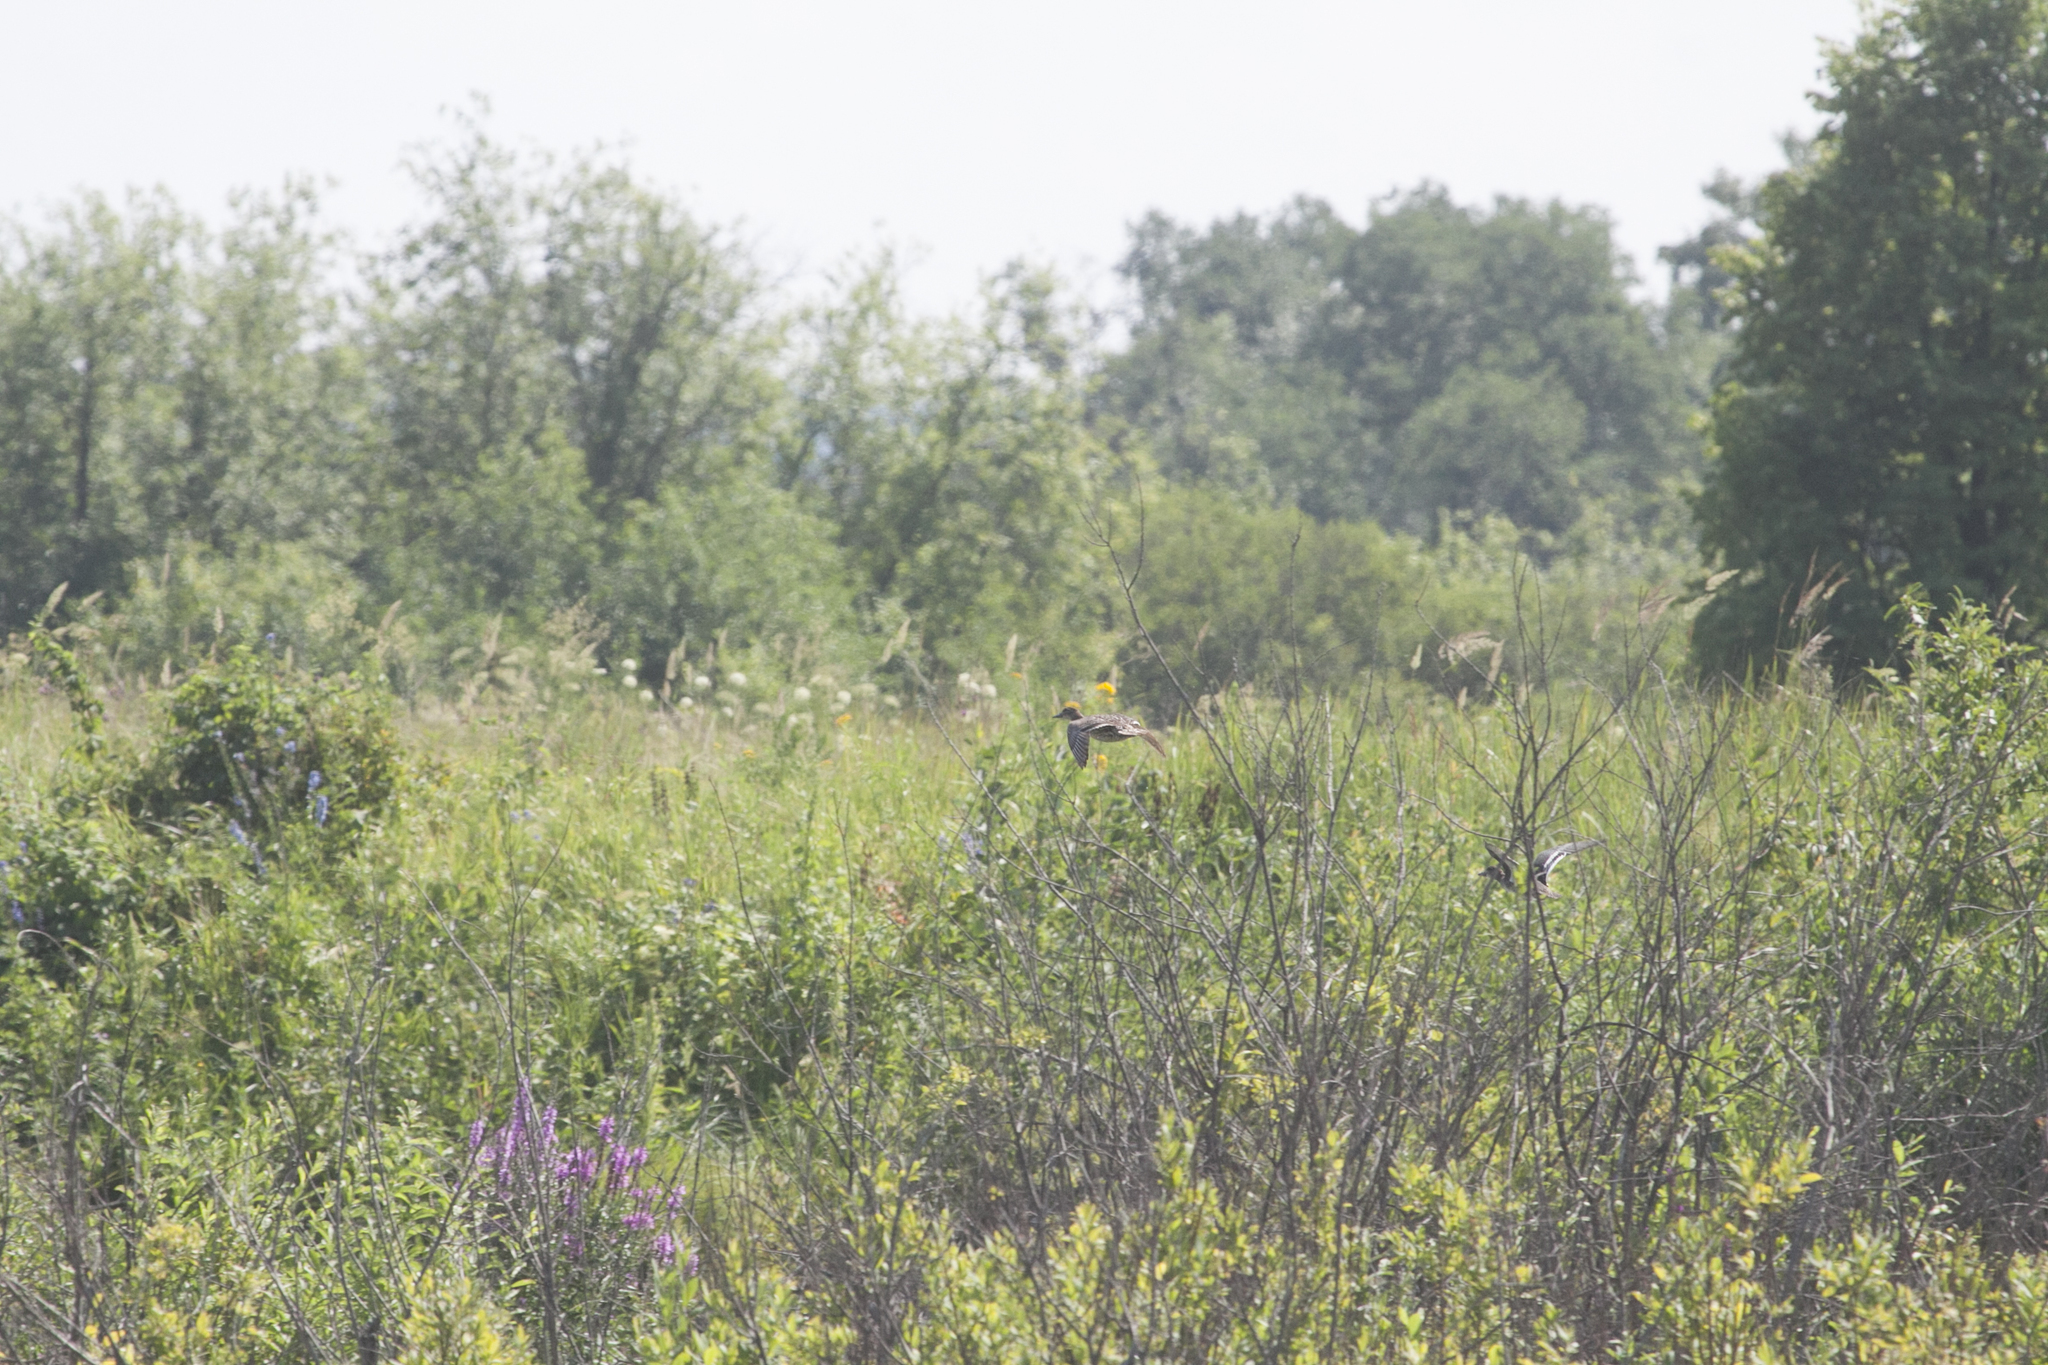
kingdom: Animalia
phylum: Chordata
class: Aves
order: Anseriformes
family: Anatidae
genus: Spatula
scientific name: Spatula querquedula
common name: Garganey
